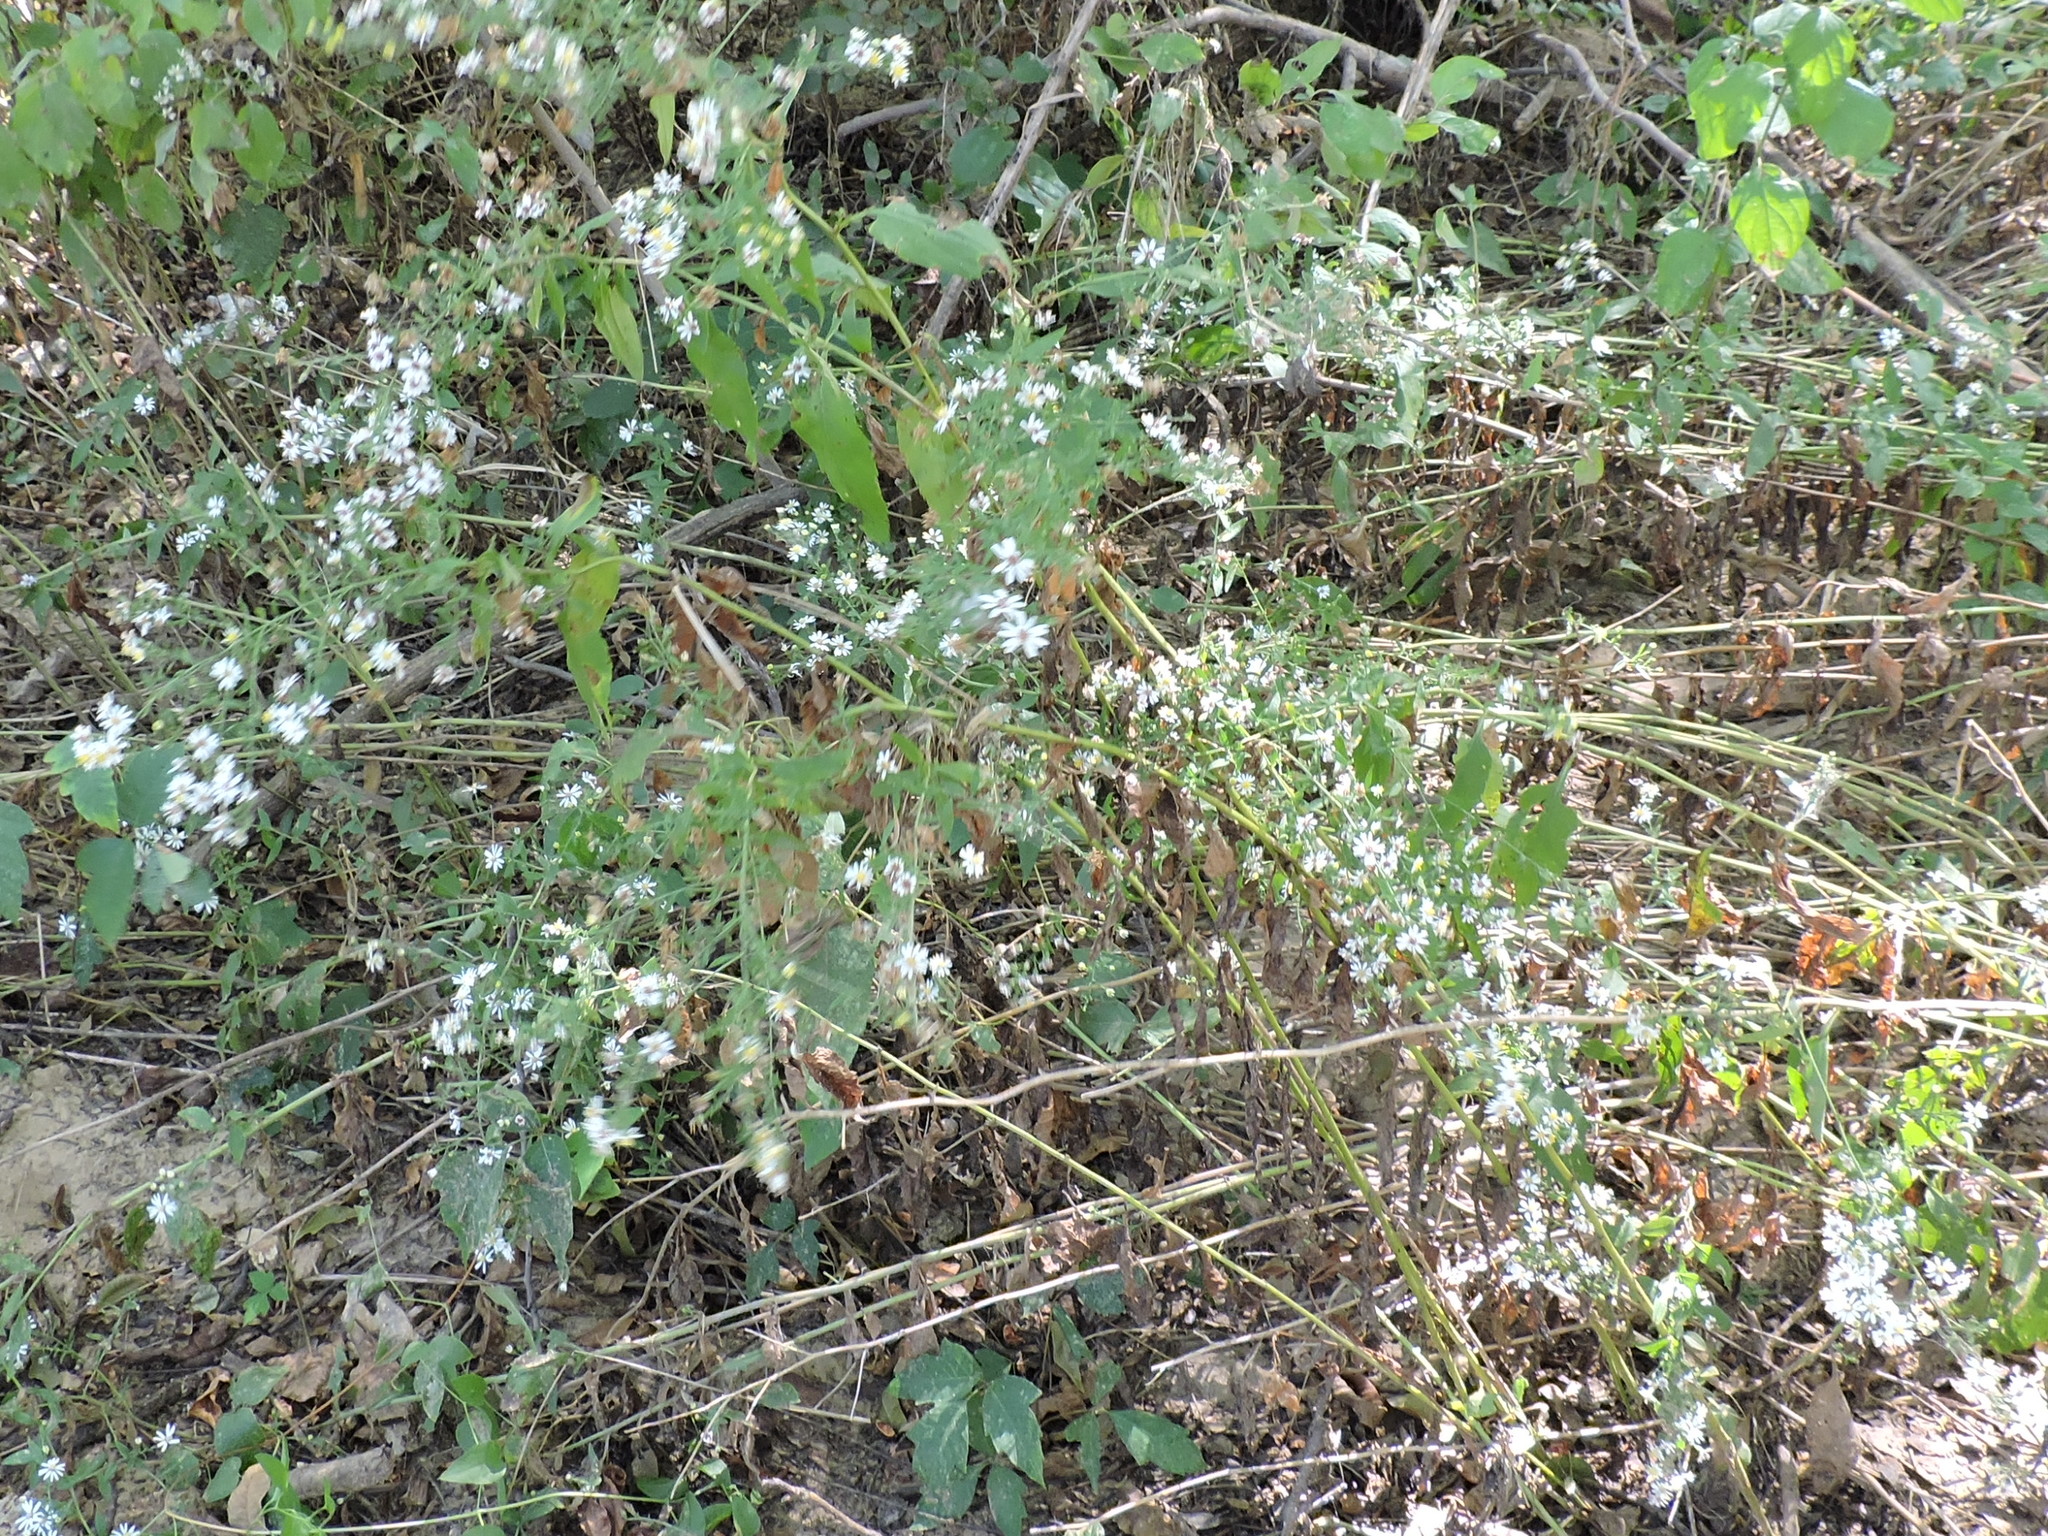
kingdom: Plantae
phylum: Tracheophyta
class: Magnoliopsida
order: Asterales
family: Asteraceae
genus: Symphyotrichum
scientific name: Symphyotrichum drummondii
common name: Drummond's aster
